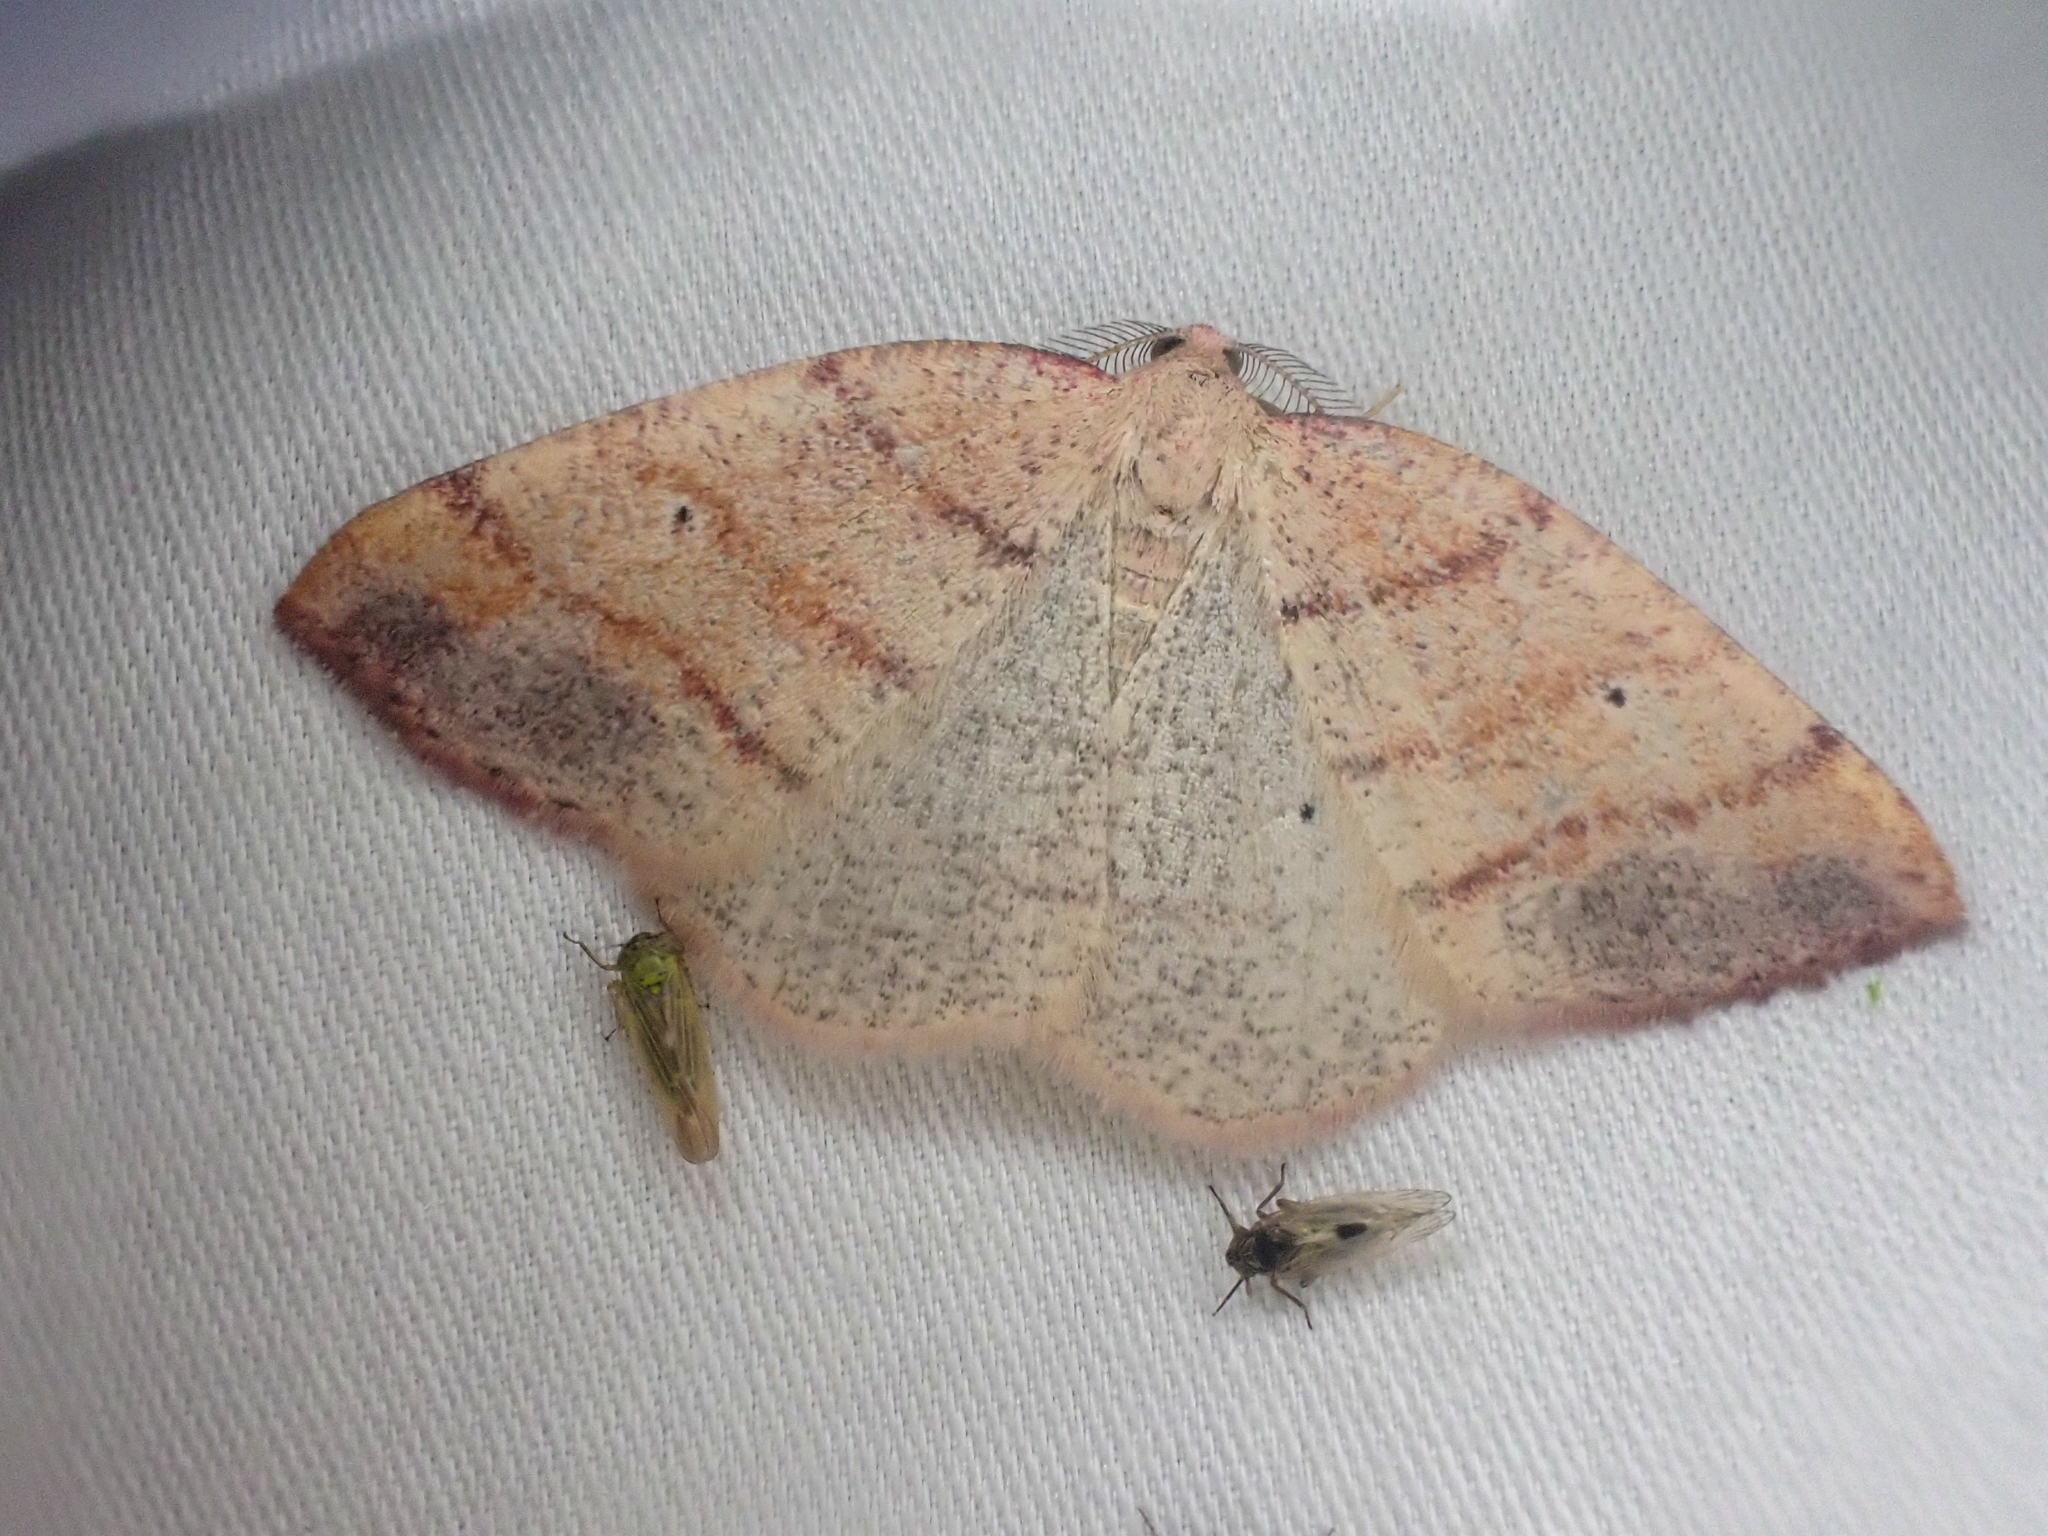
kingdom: Animalia
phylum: Arthropoda
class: Insecta
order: Lepidoptera
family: Geometridae
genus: Drepanulatrix
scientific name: Drepanulatrix carnearia
